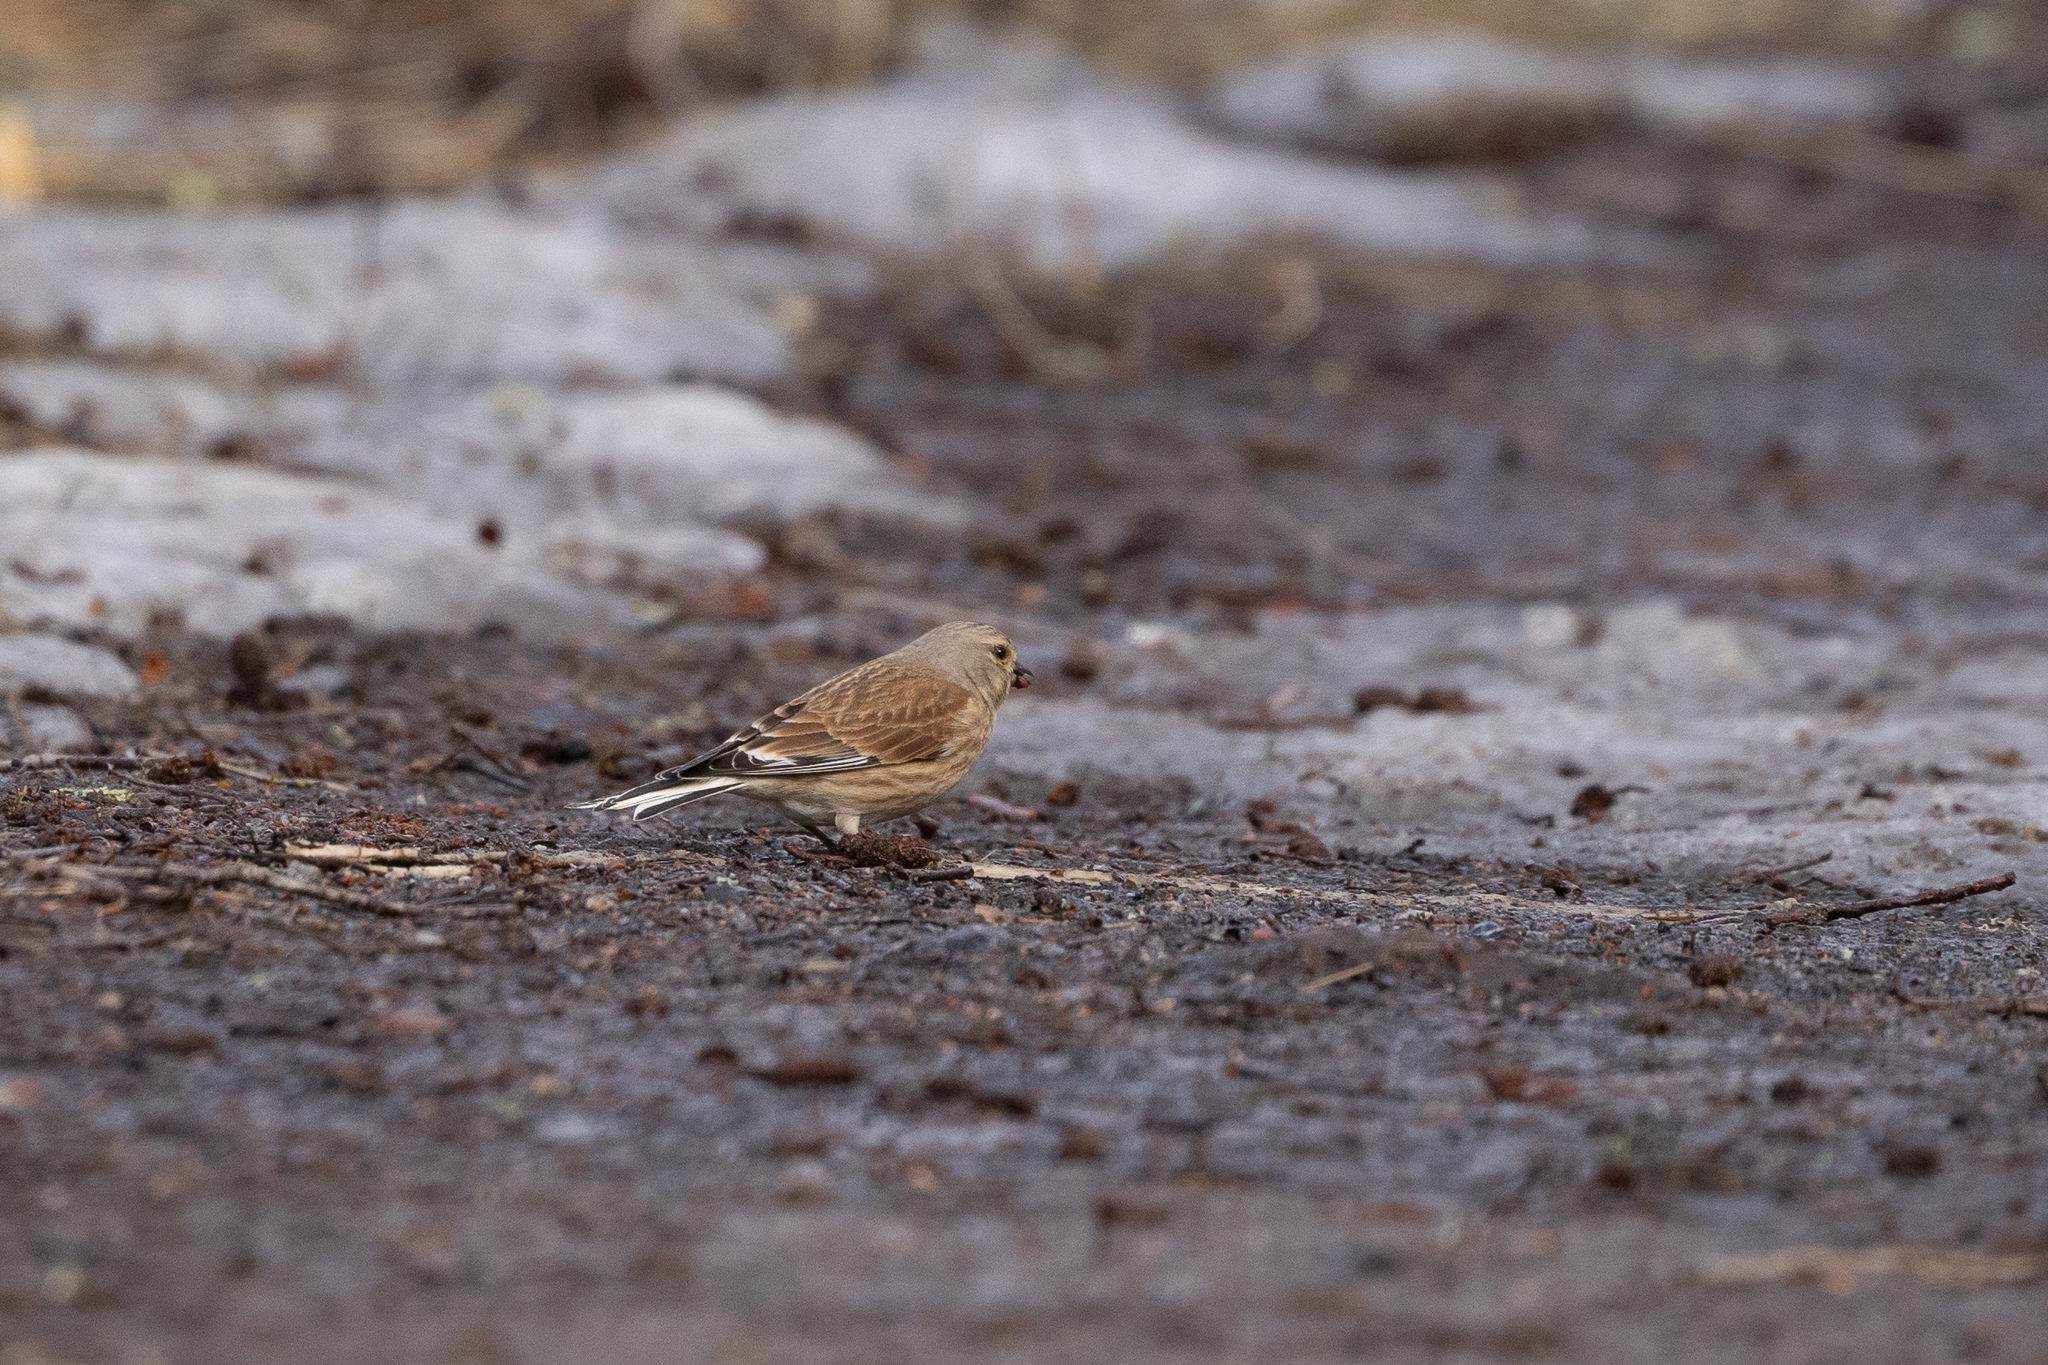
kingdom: Animalia
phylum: Chordata
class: Aves
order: Passeriformes
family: Fringillidae
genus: Linaria
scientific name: Linaria cannabina
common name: Common linnet
